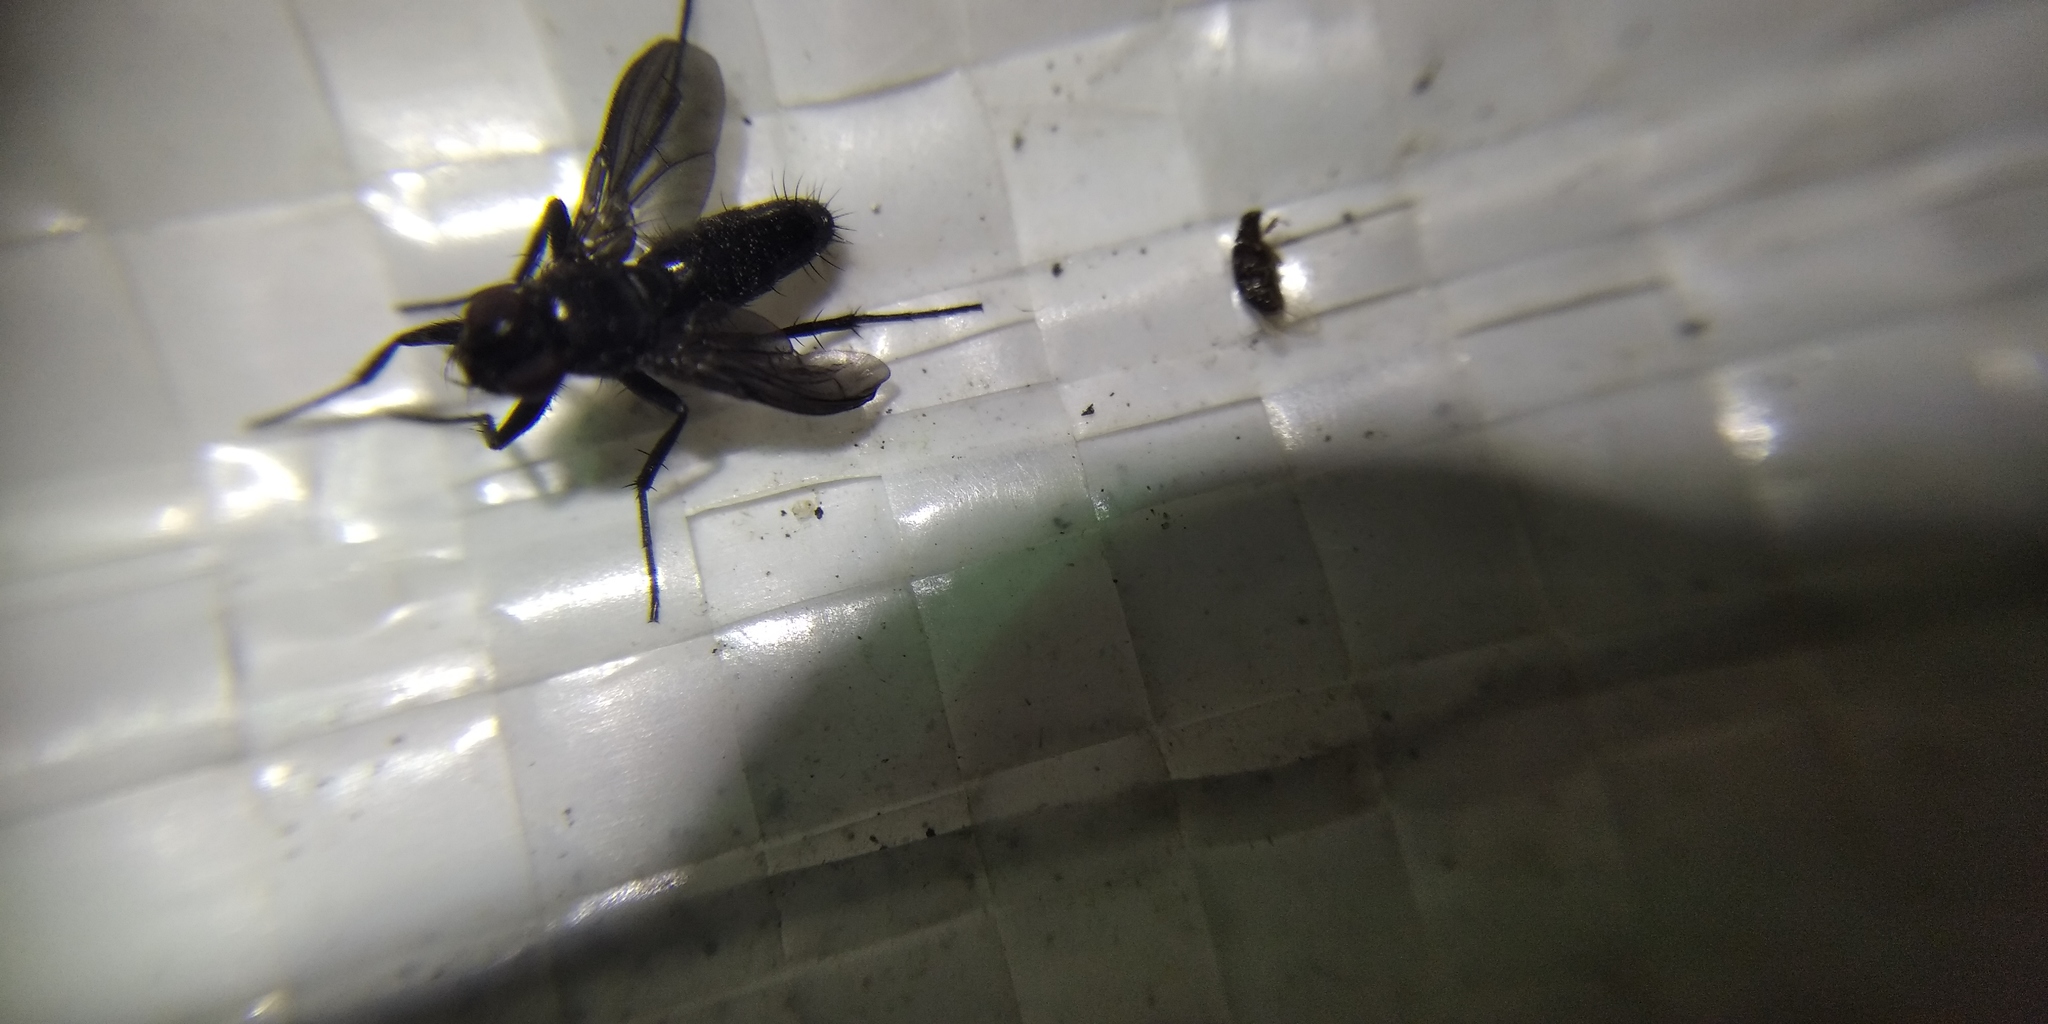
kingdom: Animalia
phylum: Arthropoda
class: Insecta
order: Diptera
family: Calliphoridae
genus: Melanophora
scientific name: Melanophora roralis
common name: Smoky-winged woodlouse-fly
